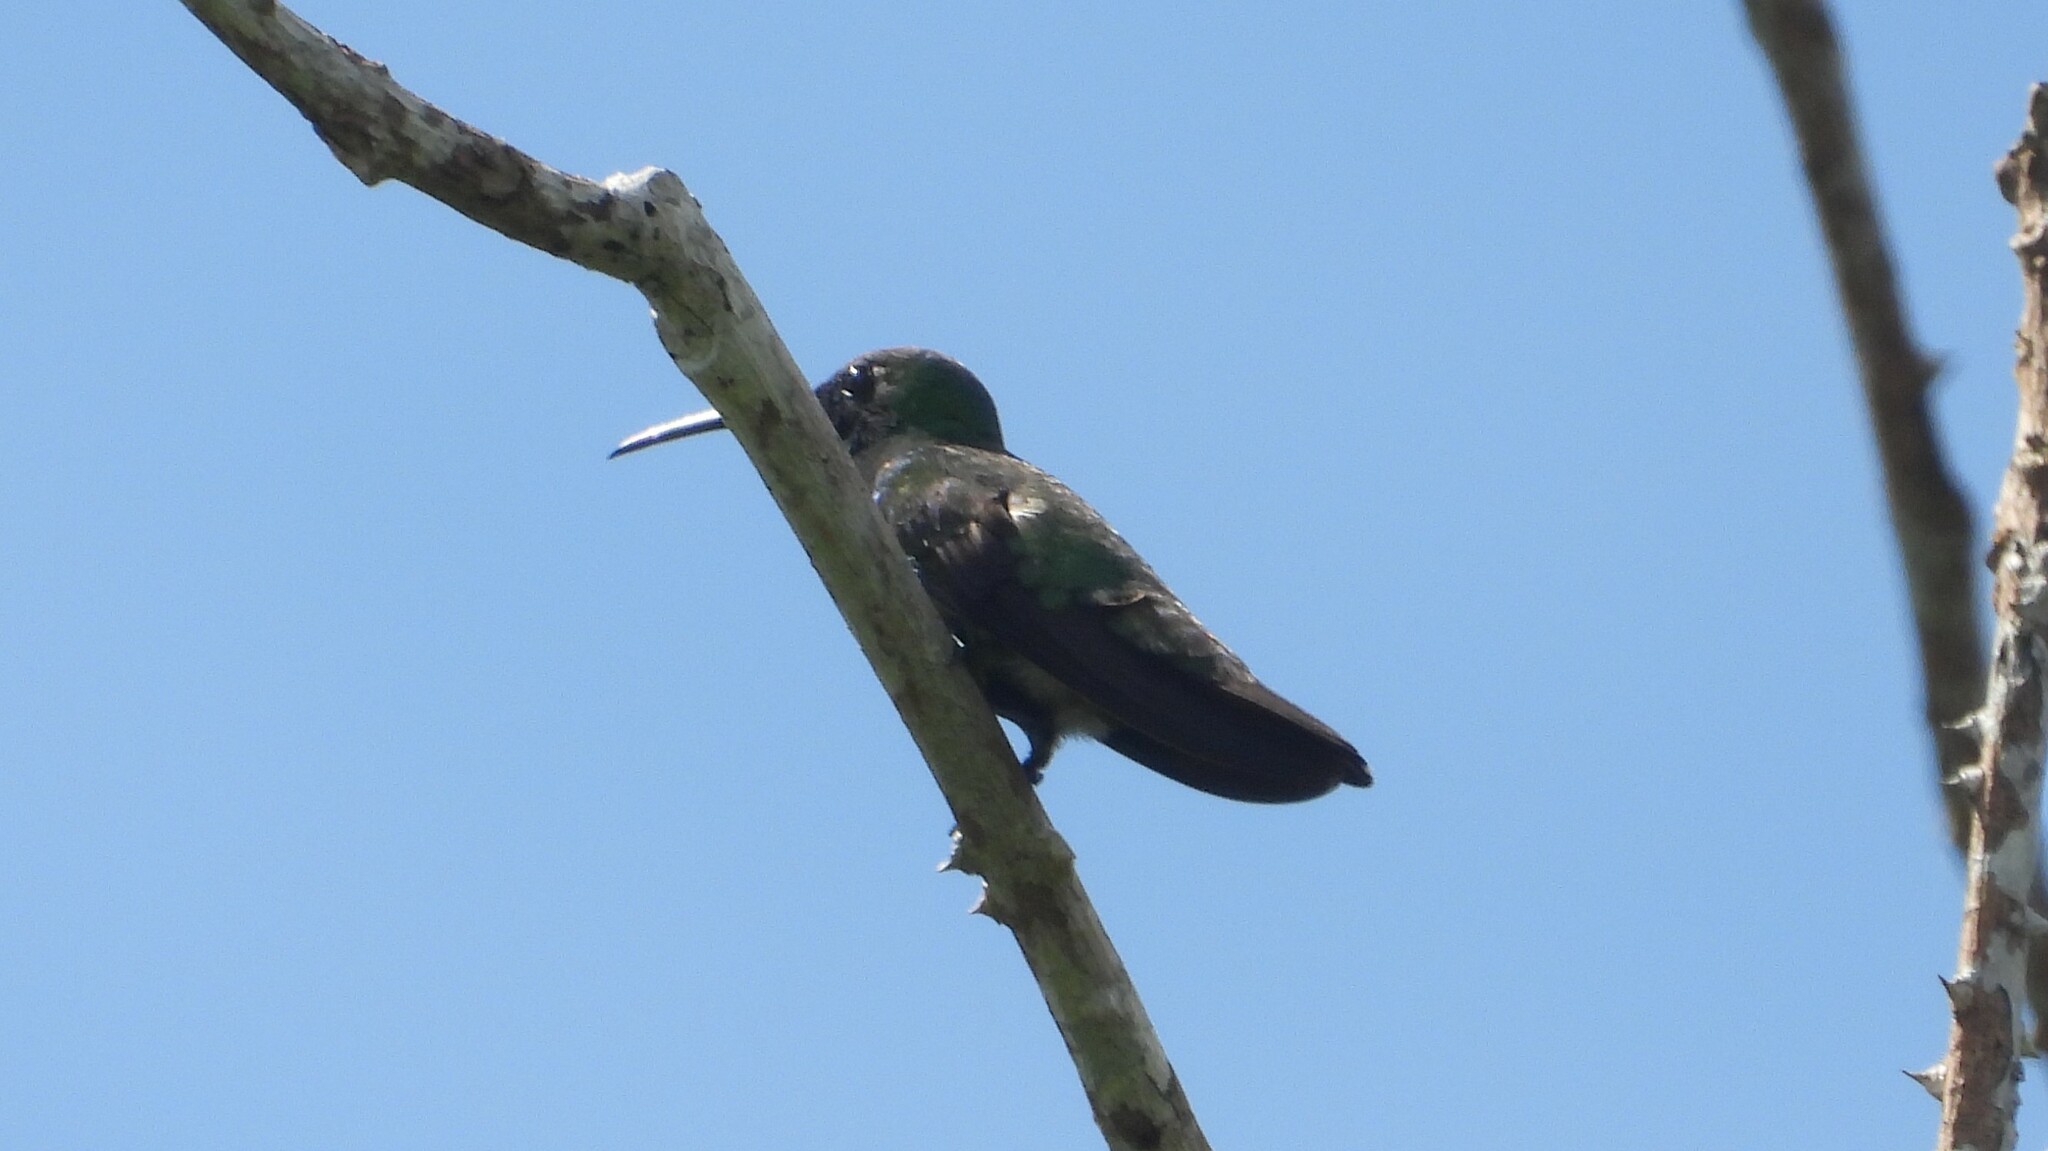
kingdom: Animalia
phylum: Chordata
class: Aves
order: Apodiformes
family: Trochilidae
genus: Anthracothorax
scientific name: Anthracothorax veraguensis
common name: Veraguan mango
